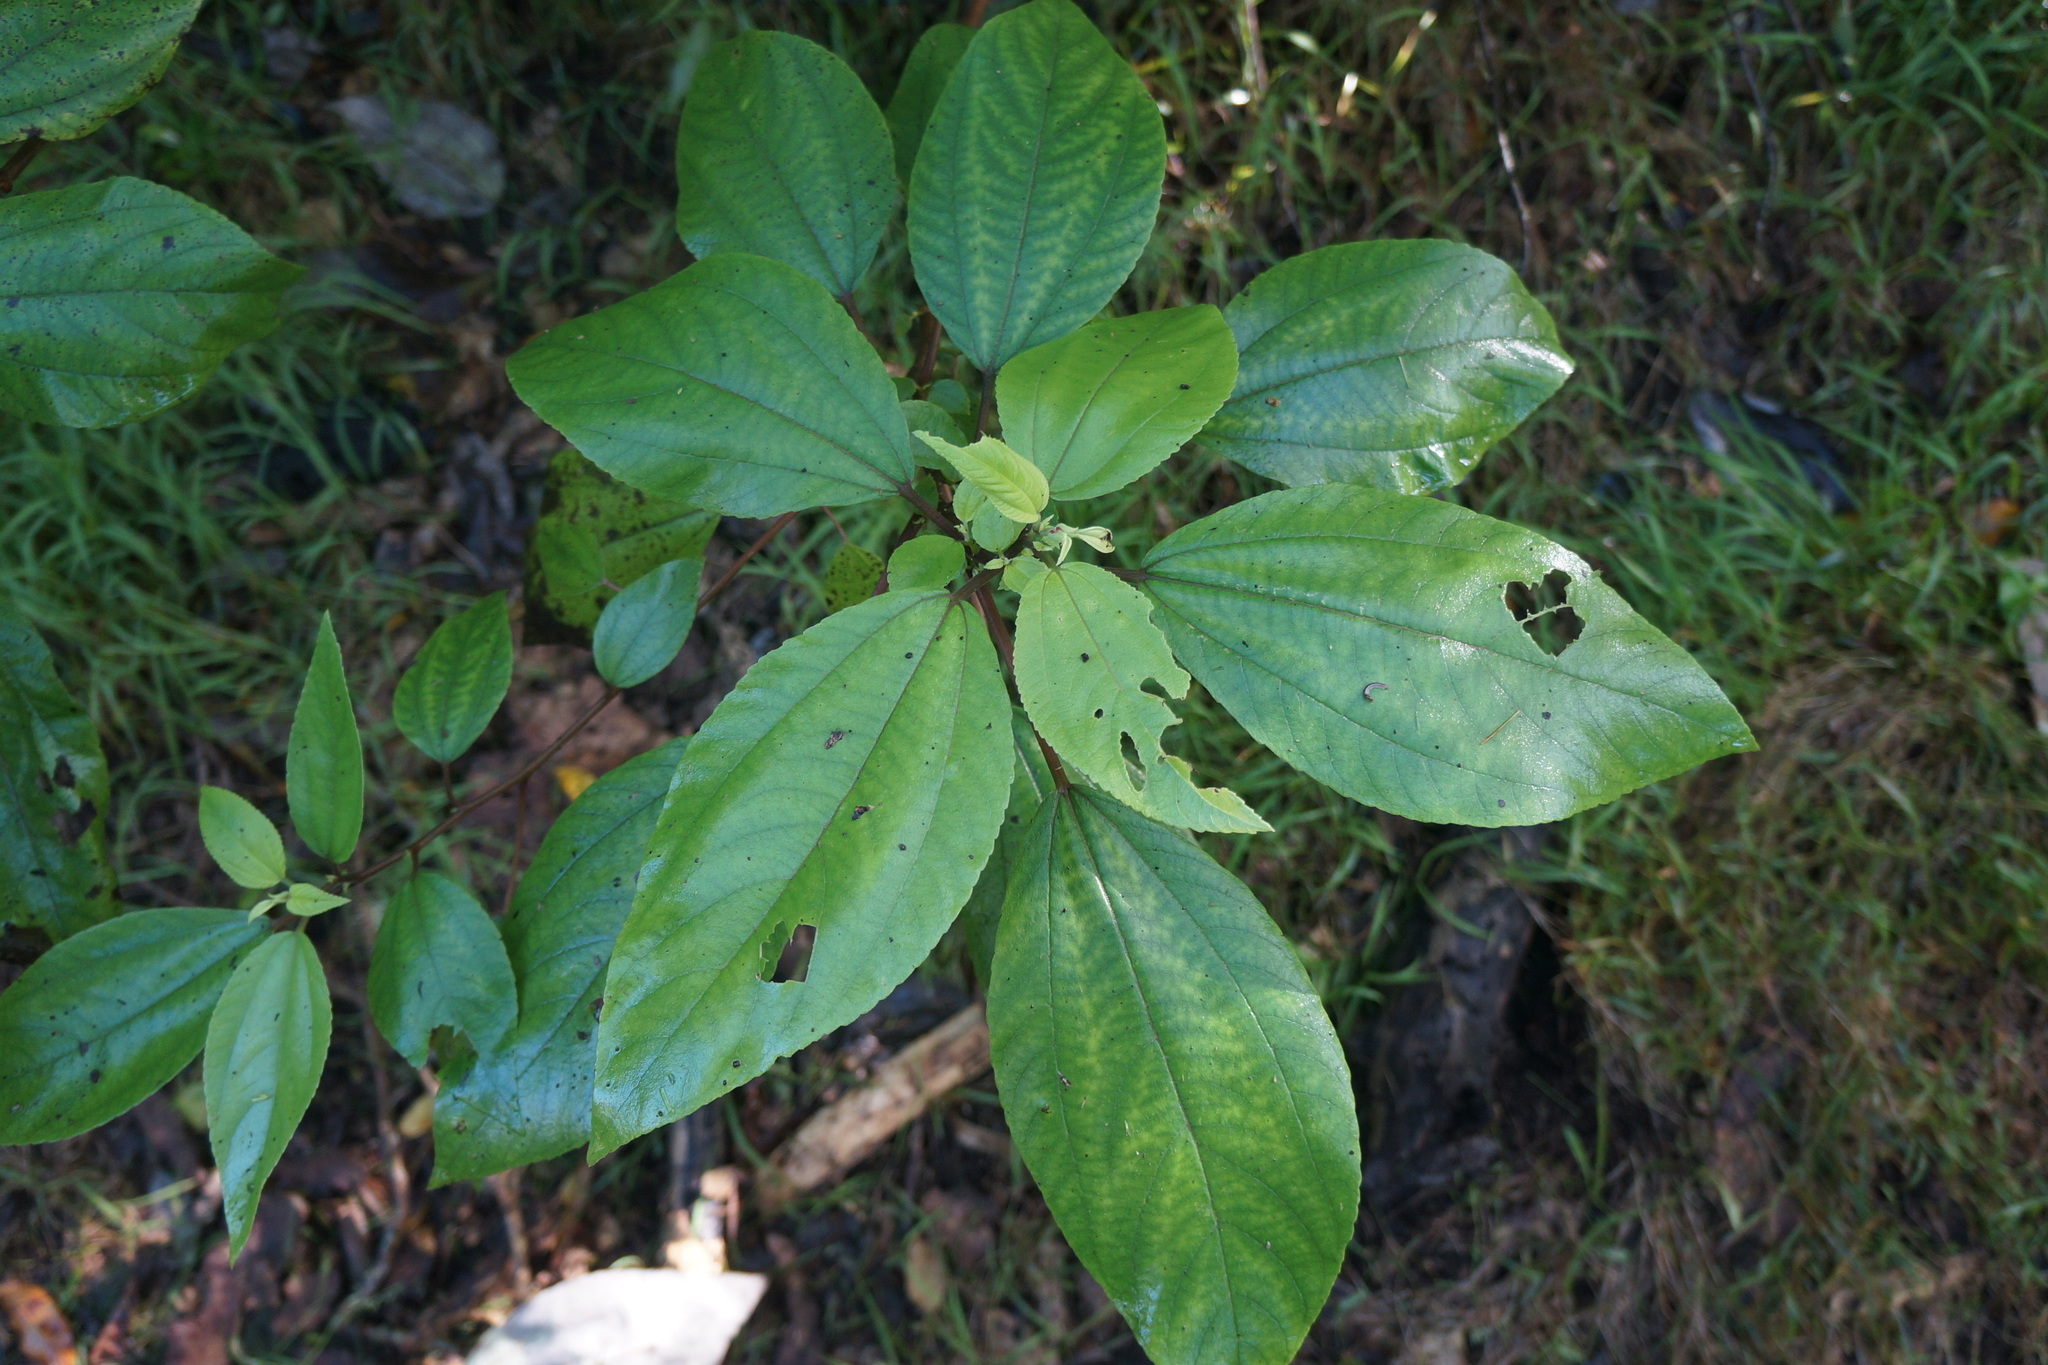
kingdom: Plantae
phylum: Tracheophyta
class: Magnoliopsida
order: Rosales
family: Urticaceae
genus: Pipturus
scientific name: Pipturus albidus
